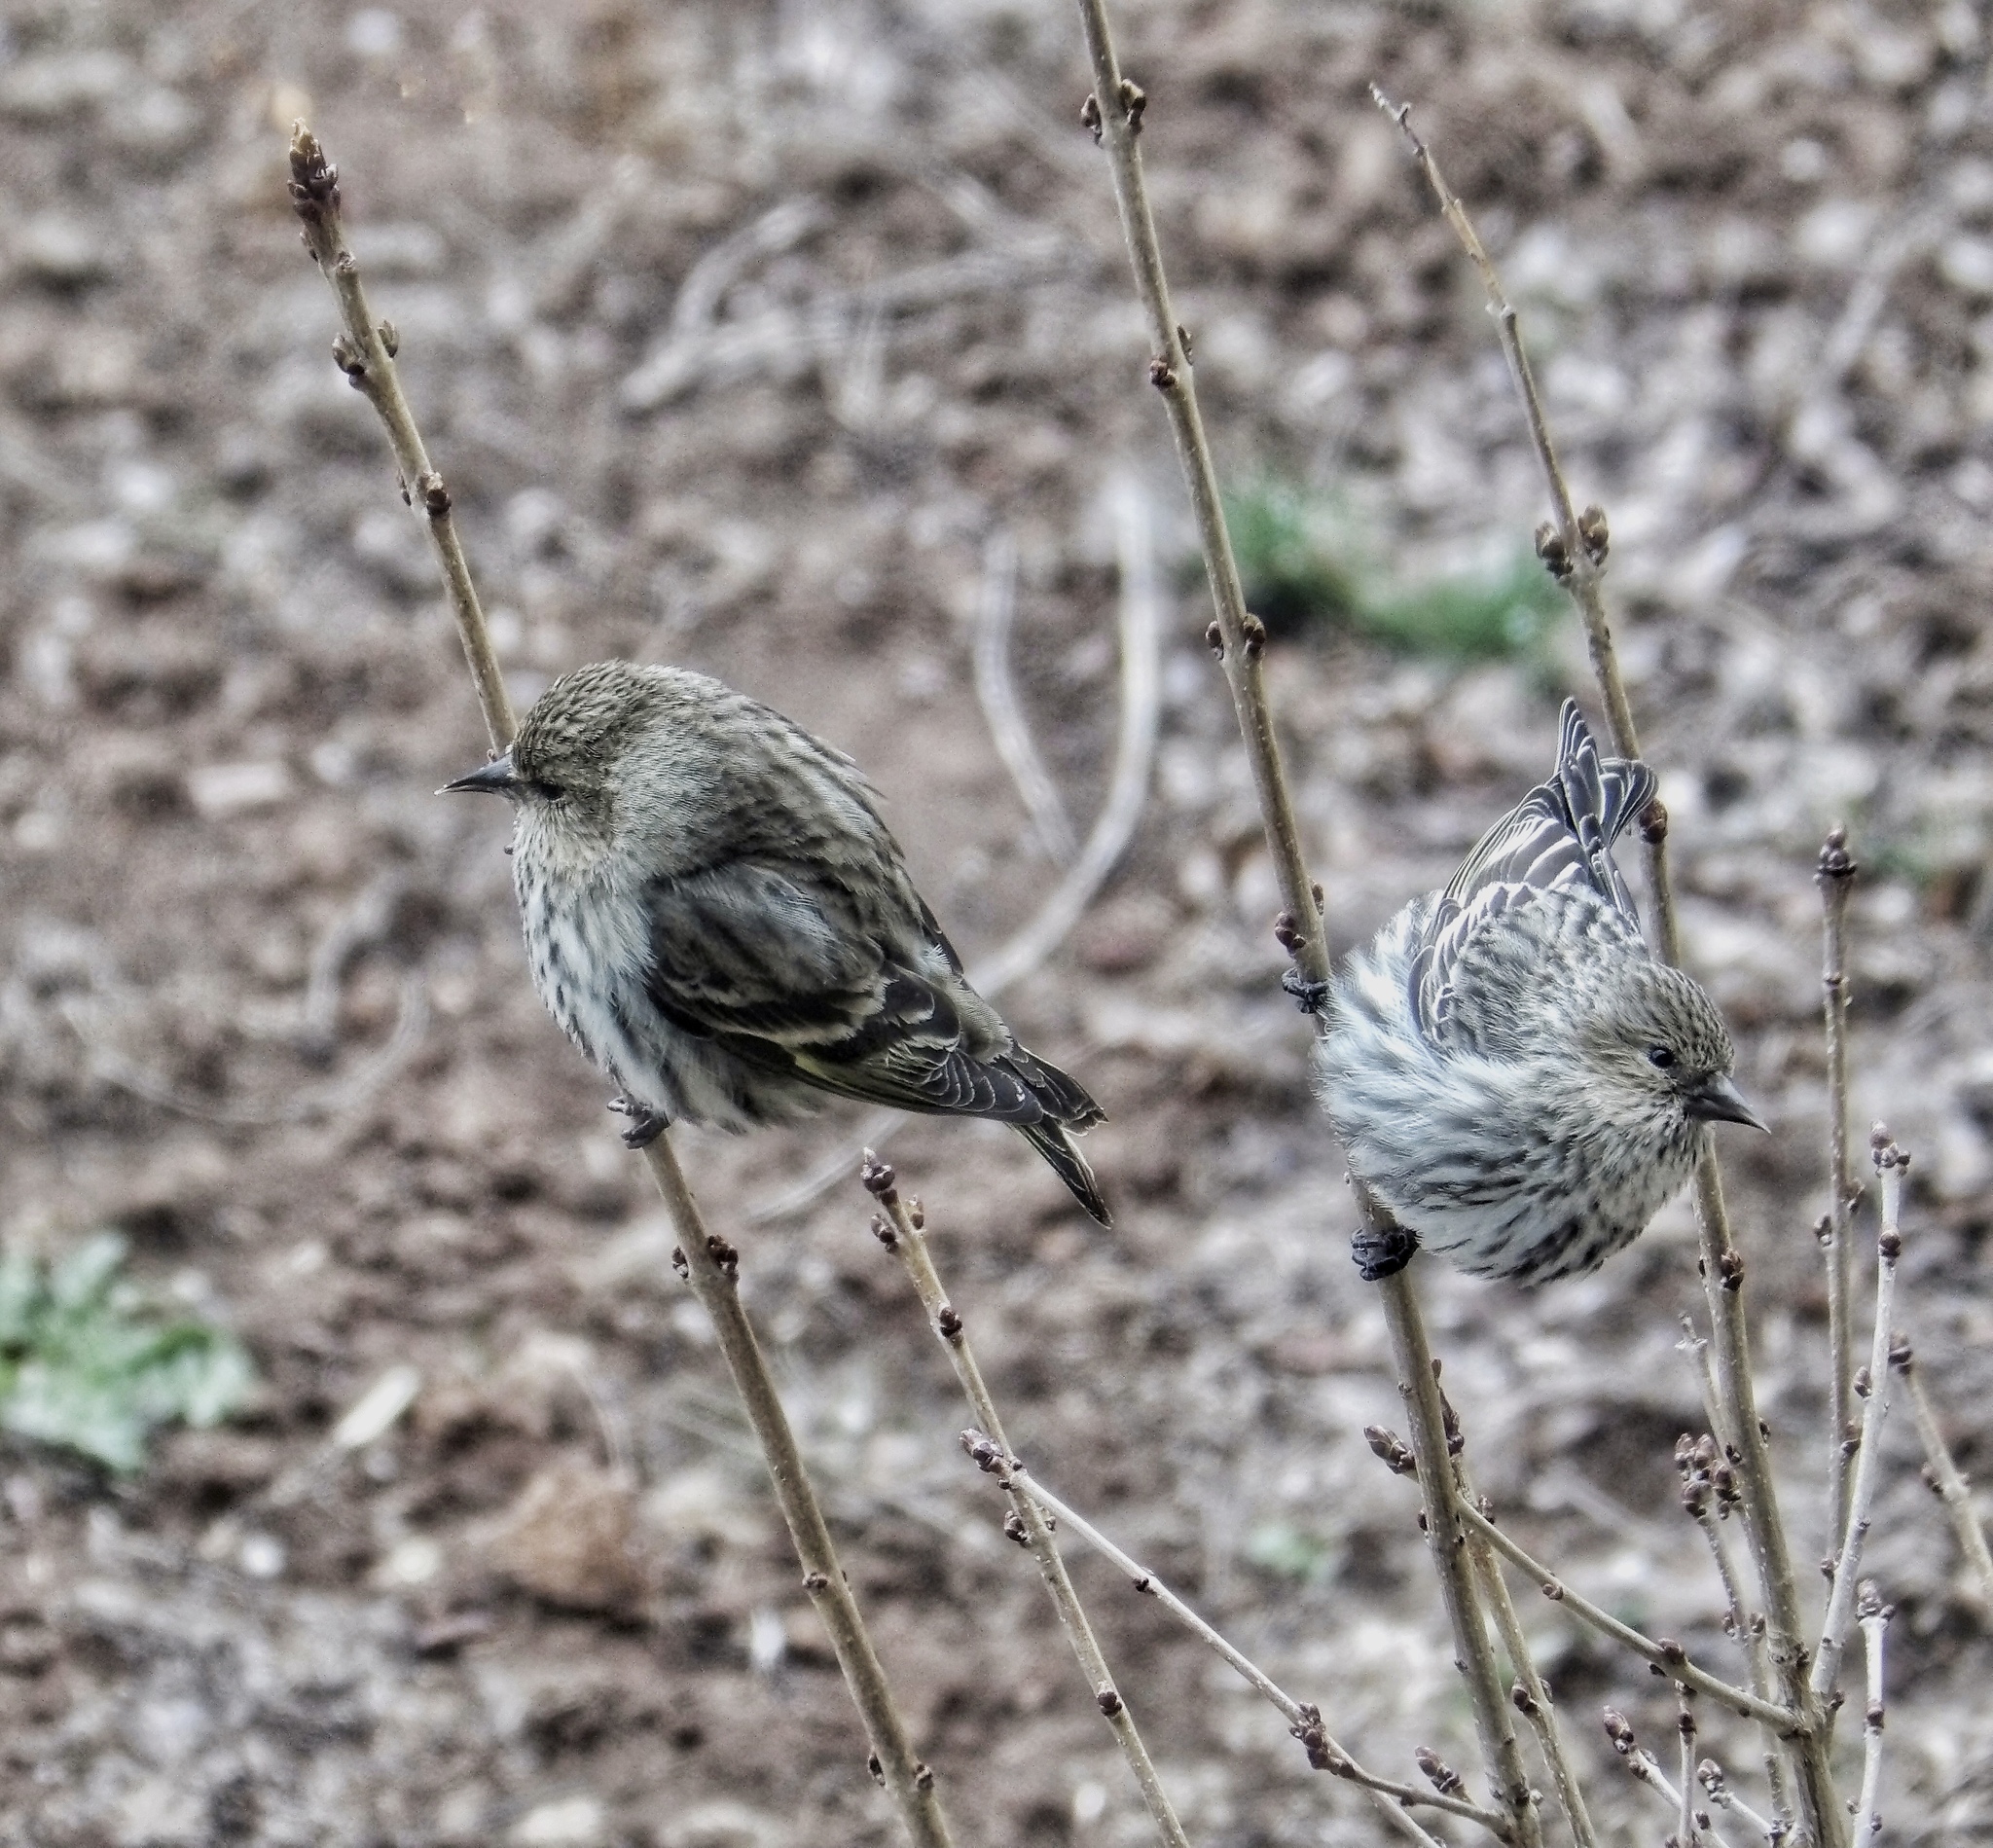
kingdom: Animalia
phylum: Chordata
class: Aves
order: Passeriformes
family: Fringillidae
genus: Spinus
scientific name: Spinus pinus
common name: Pine siskin
